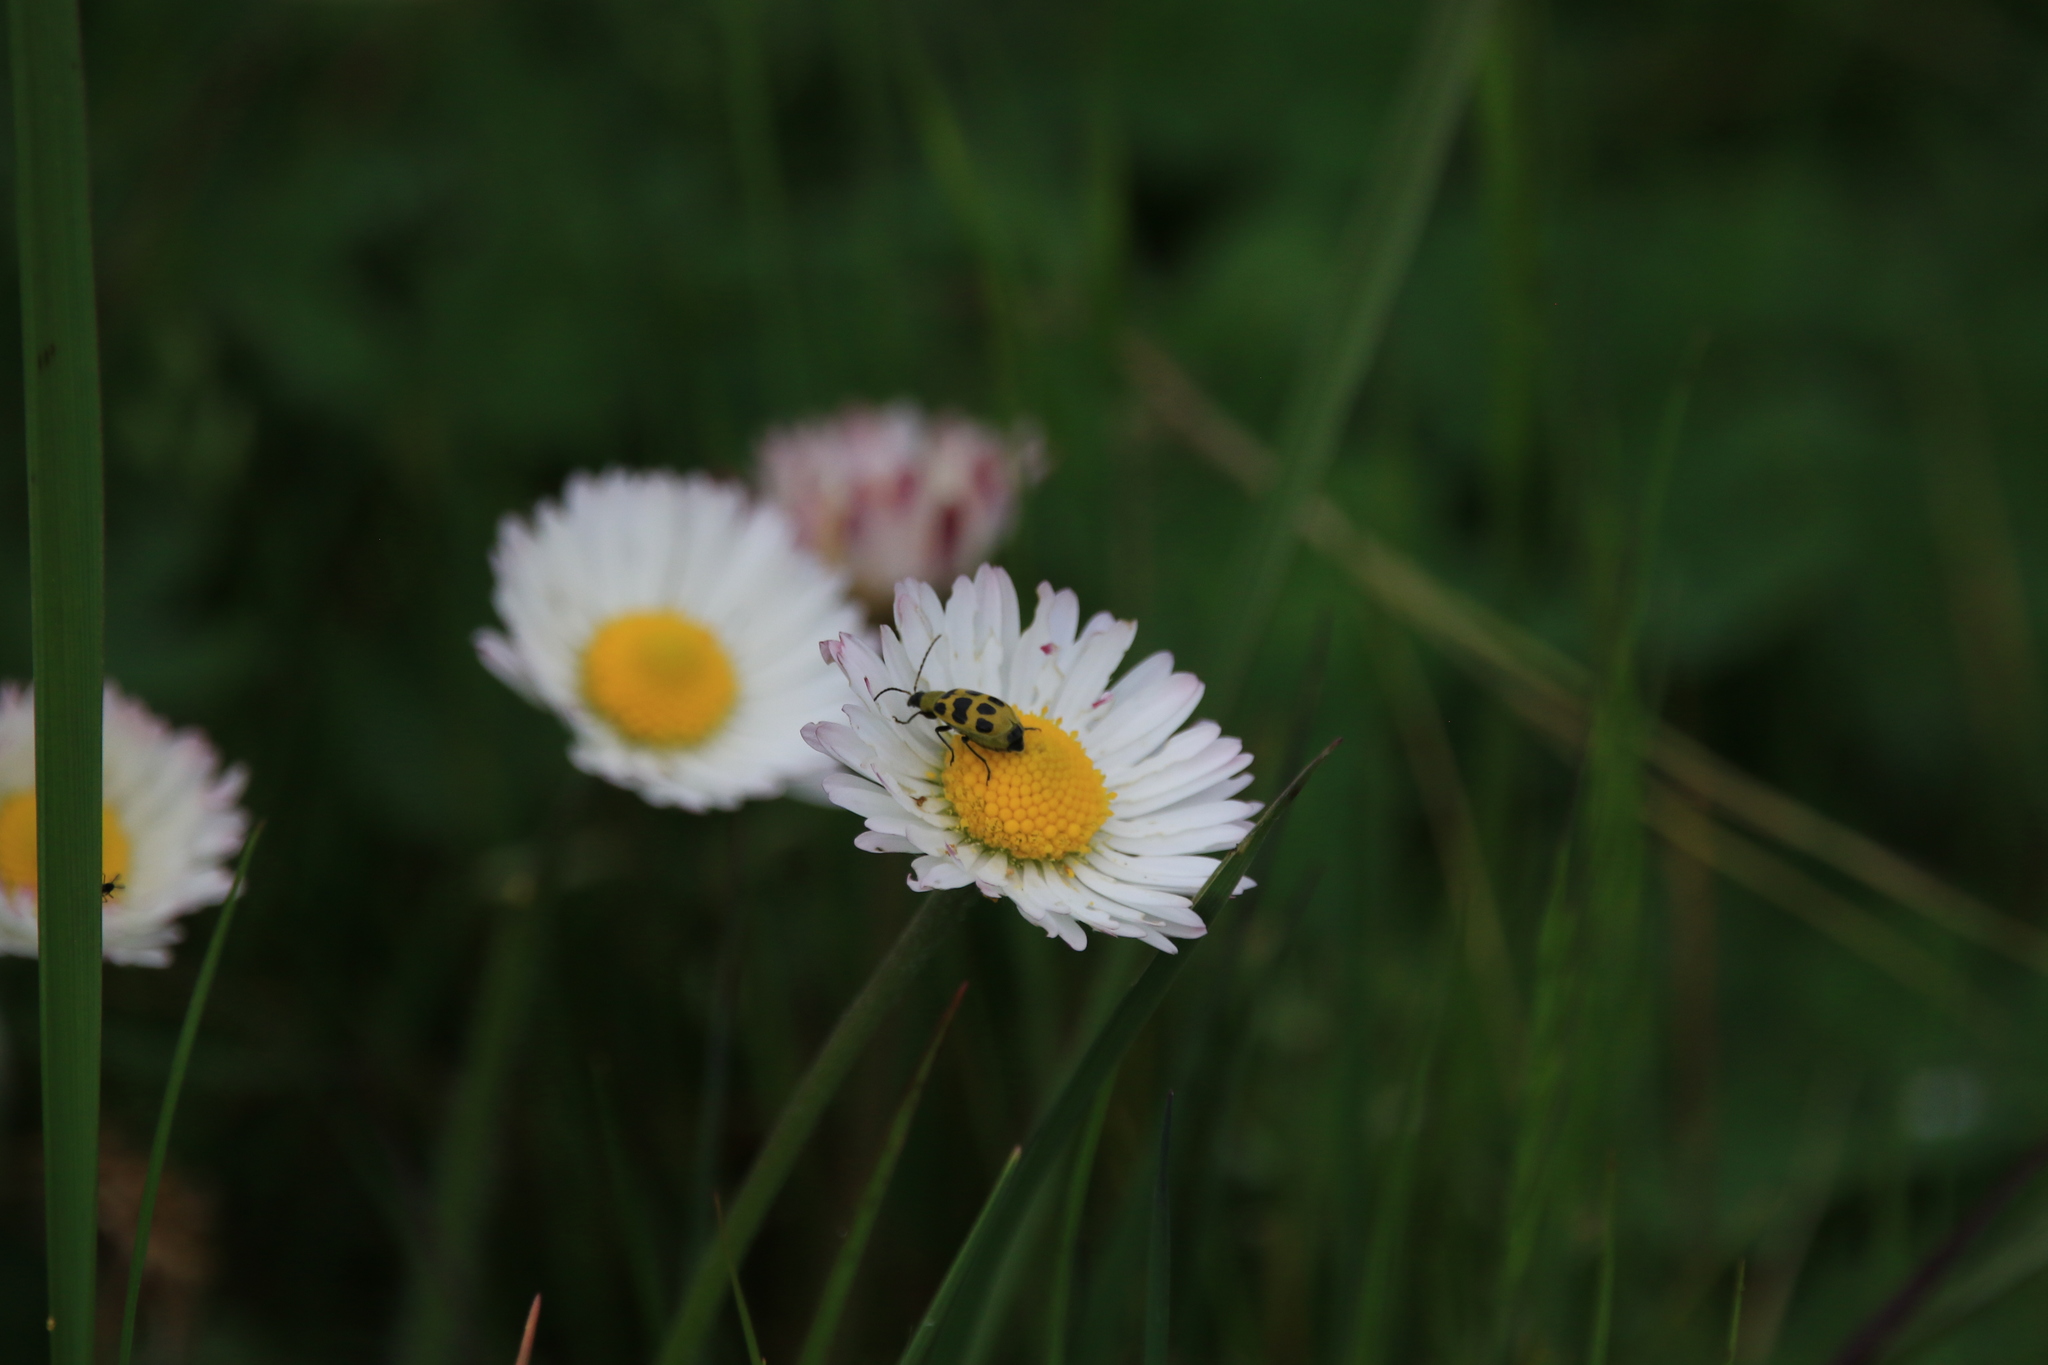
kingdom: Animalia
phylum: Arthropoda
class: Insecta
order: Coleoptera
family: Chrysomelidae
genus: Diabrotica
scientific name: Diabrotica undecimpunctata
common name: Spotted cucumber beetle
